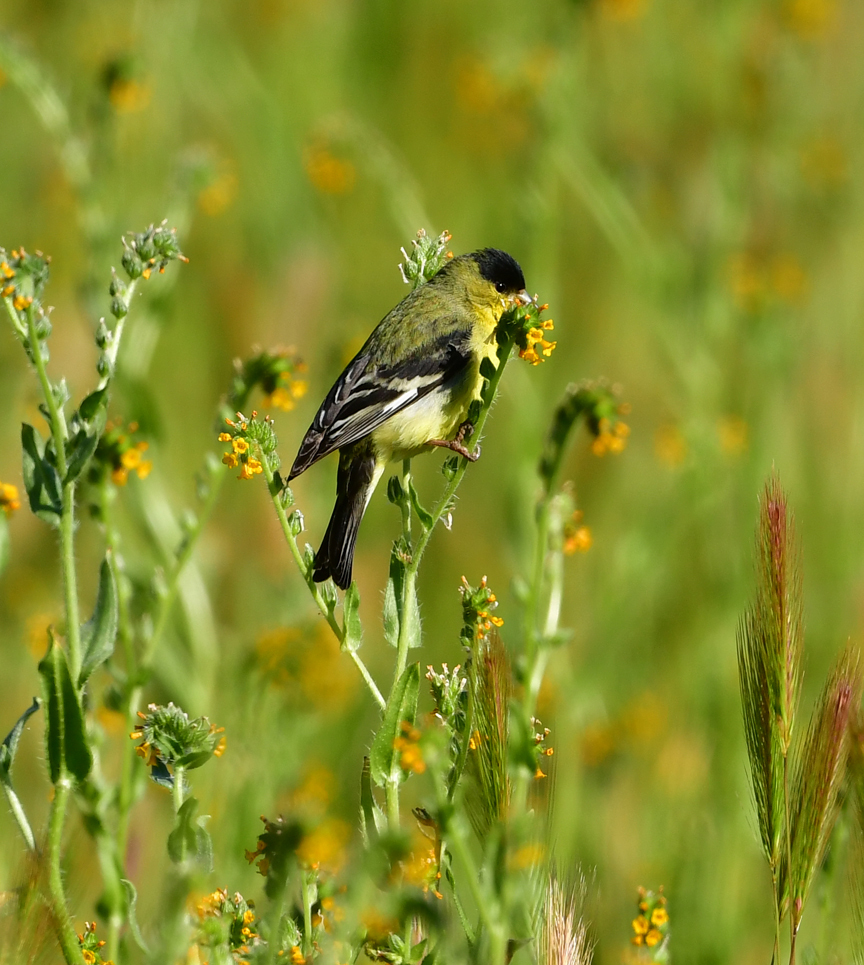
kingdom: Animalia
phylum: Chordata
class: Aves
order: Passeriformes
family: Fringillidae
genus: Spinus
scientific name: Spinus psaltria
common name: Lesser goldfinch
